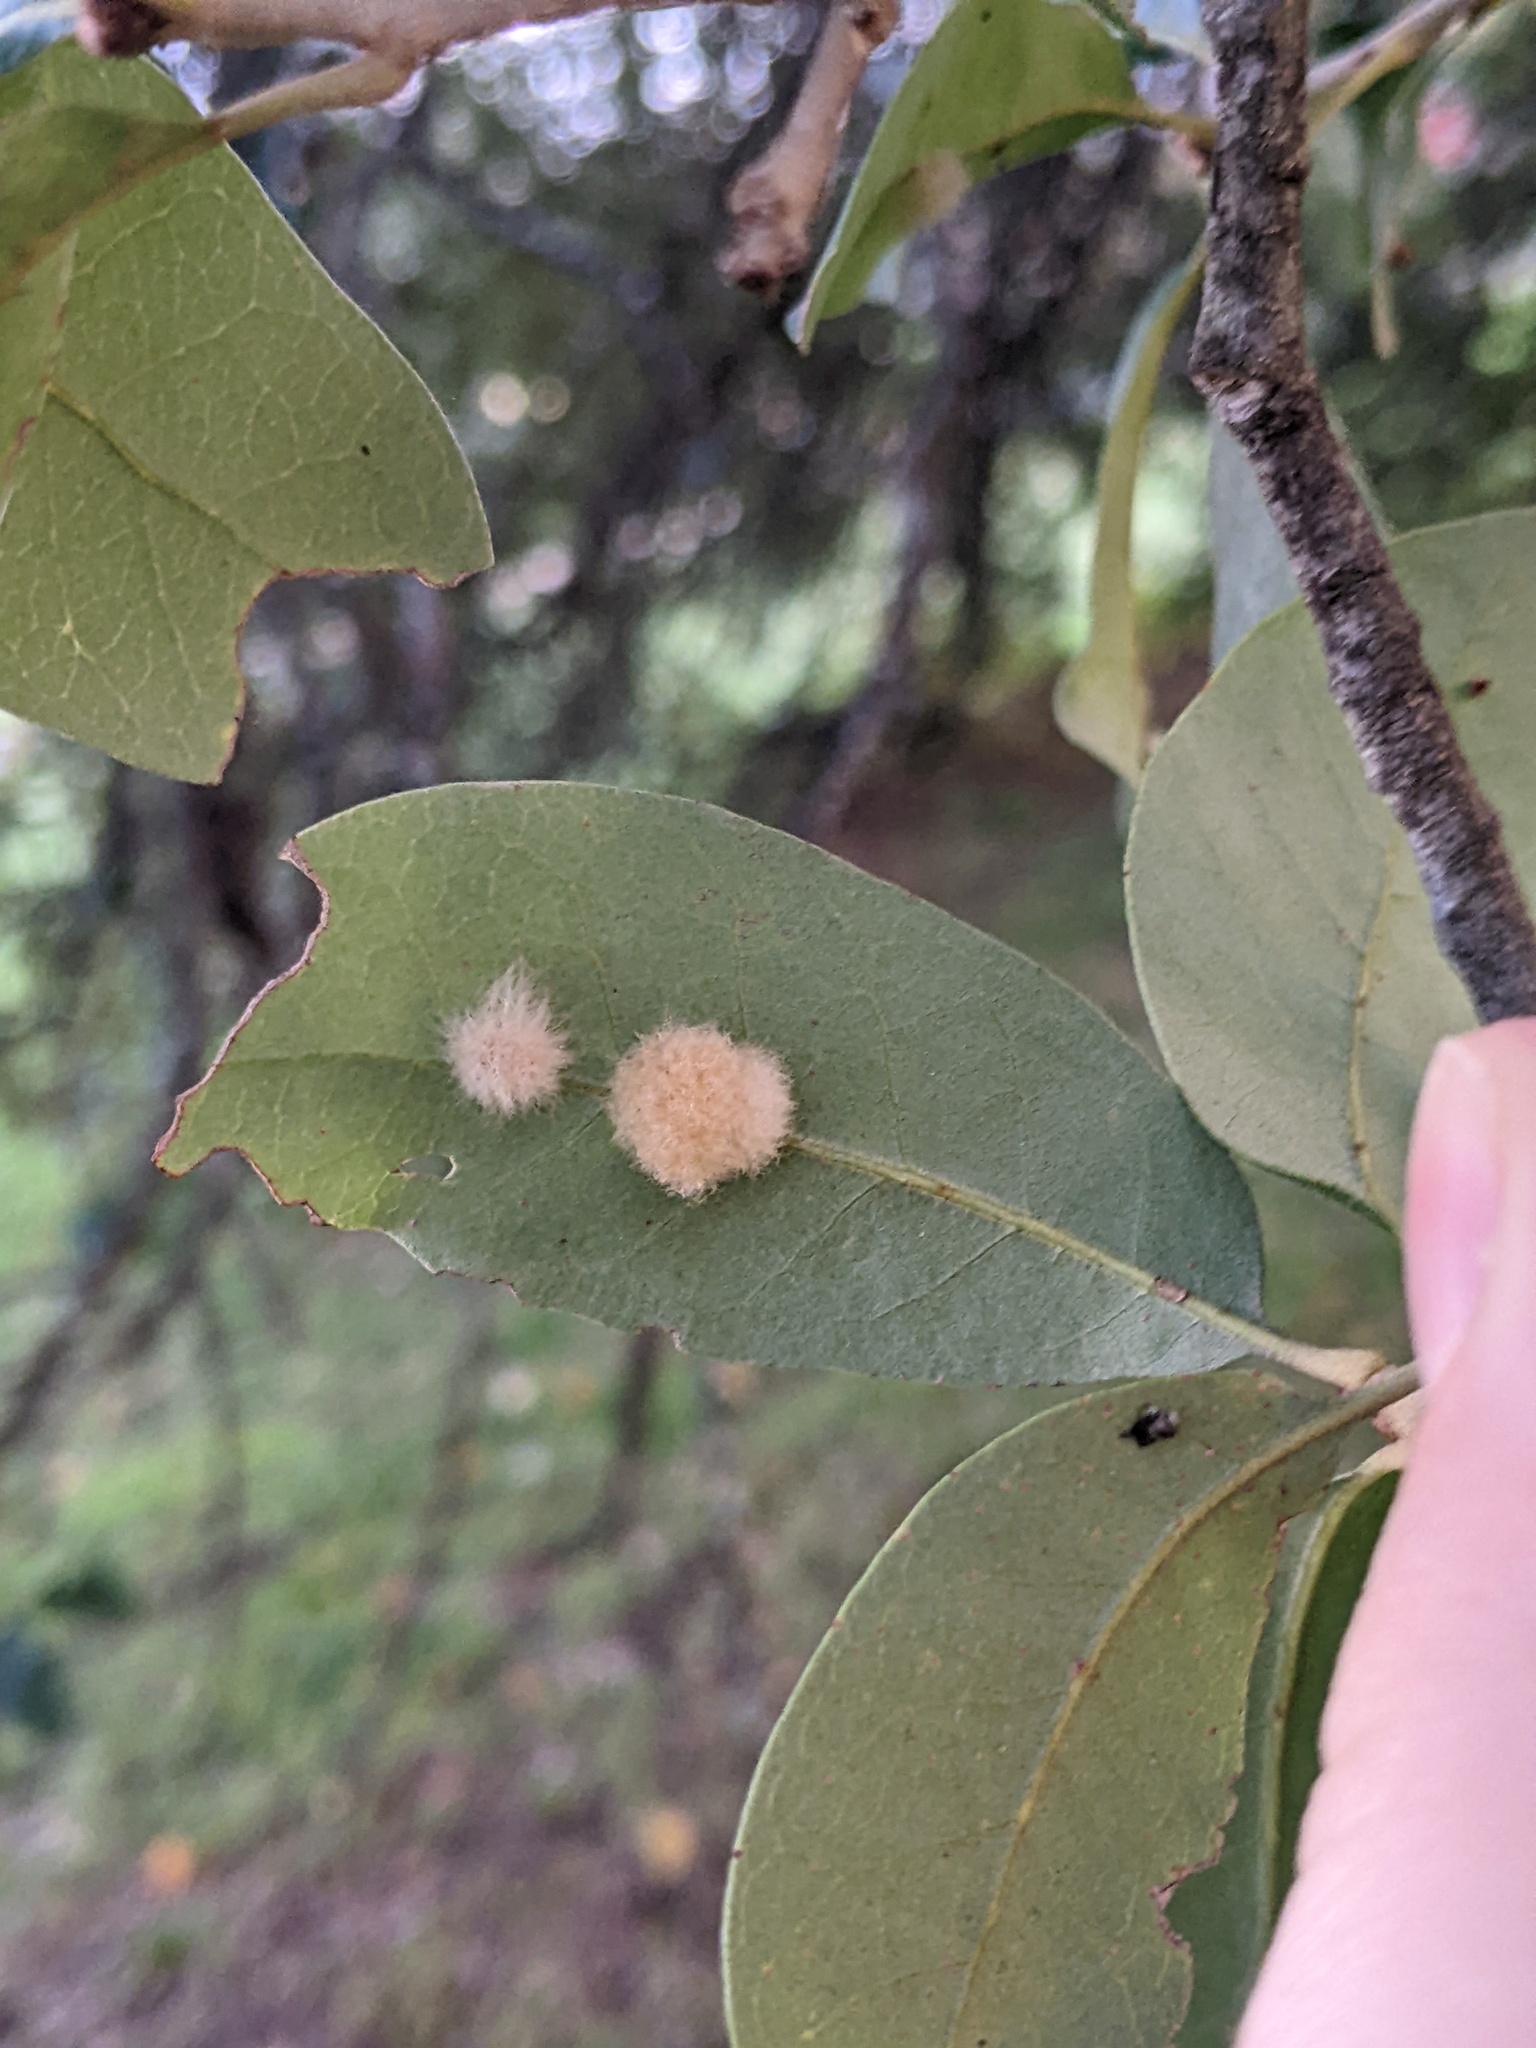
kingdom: Animalia
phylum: Arthropoda
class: Insecta
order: Hymenoptera
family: Cynipidae
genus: Andricus
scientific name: Andricus Druon quercuslanigerum
